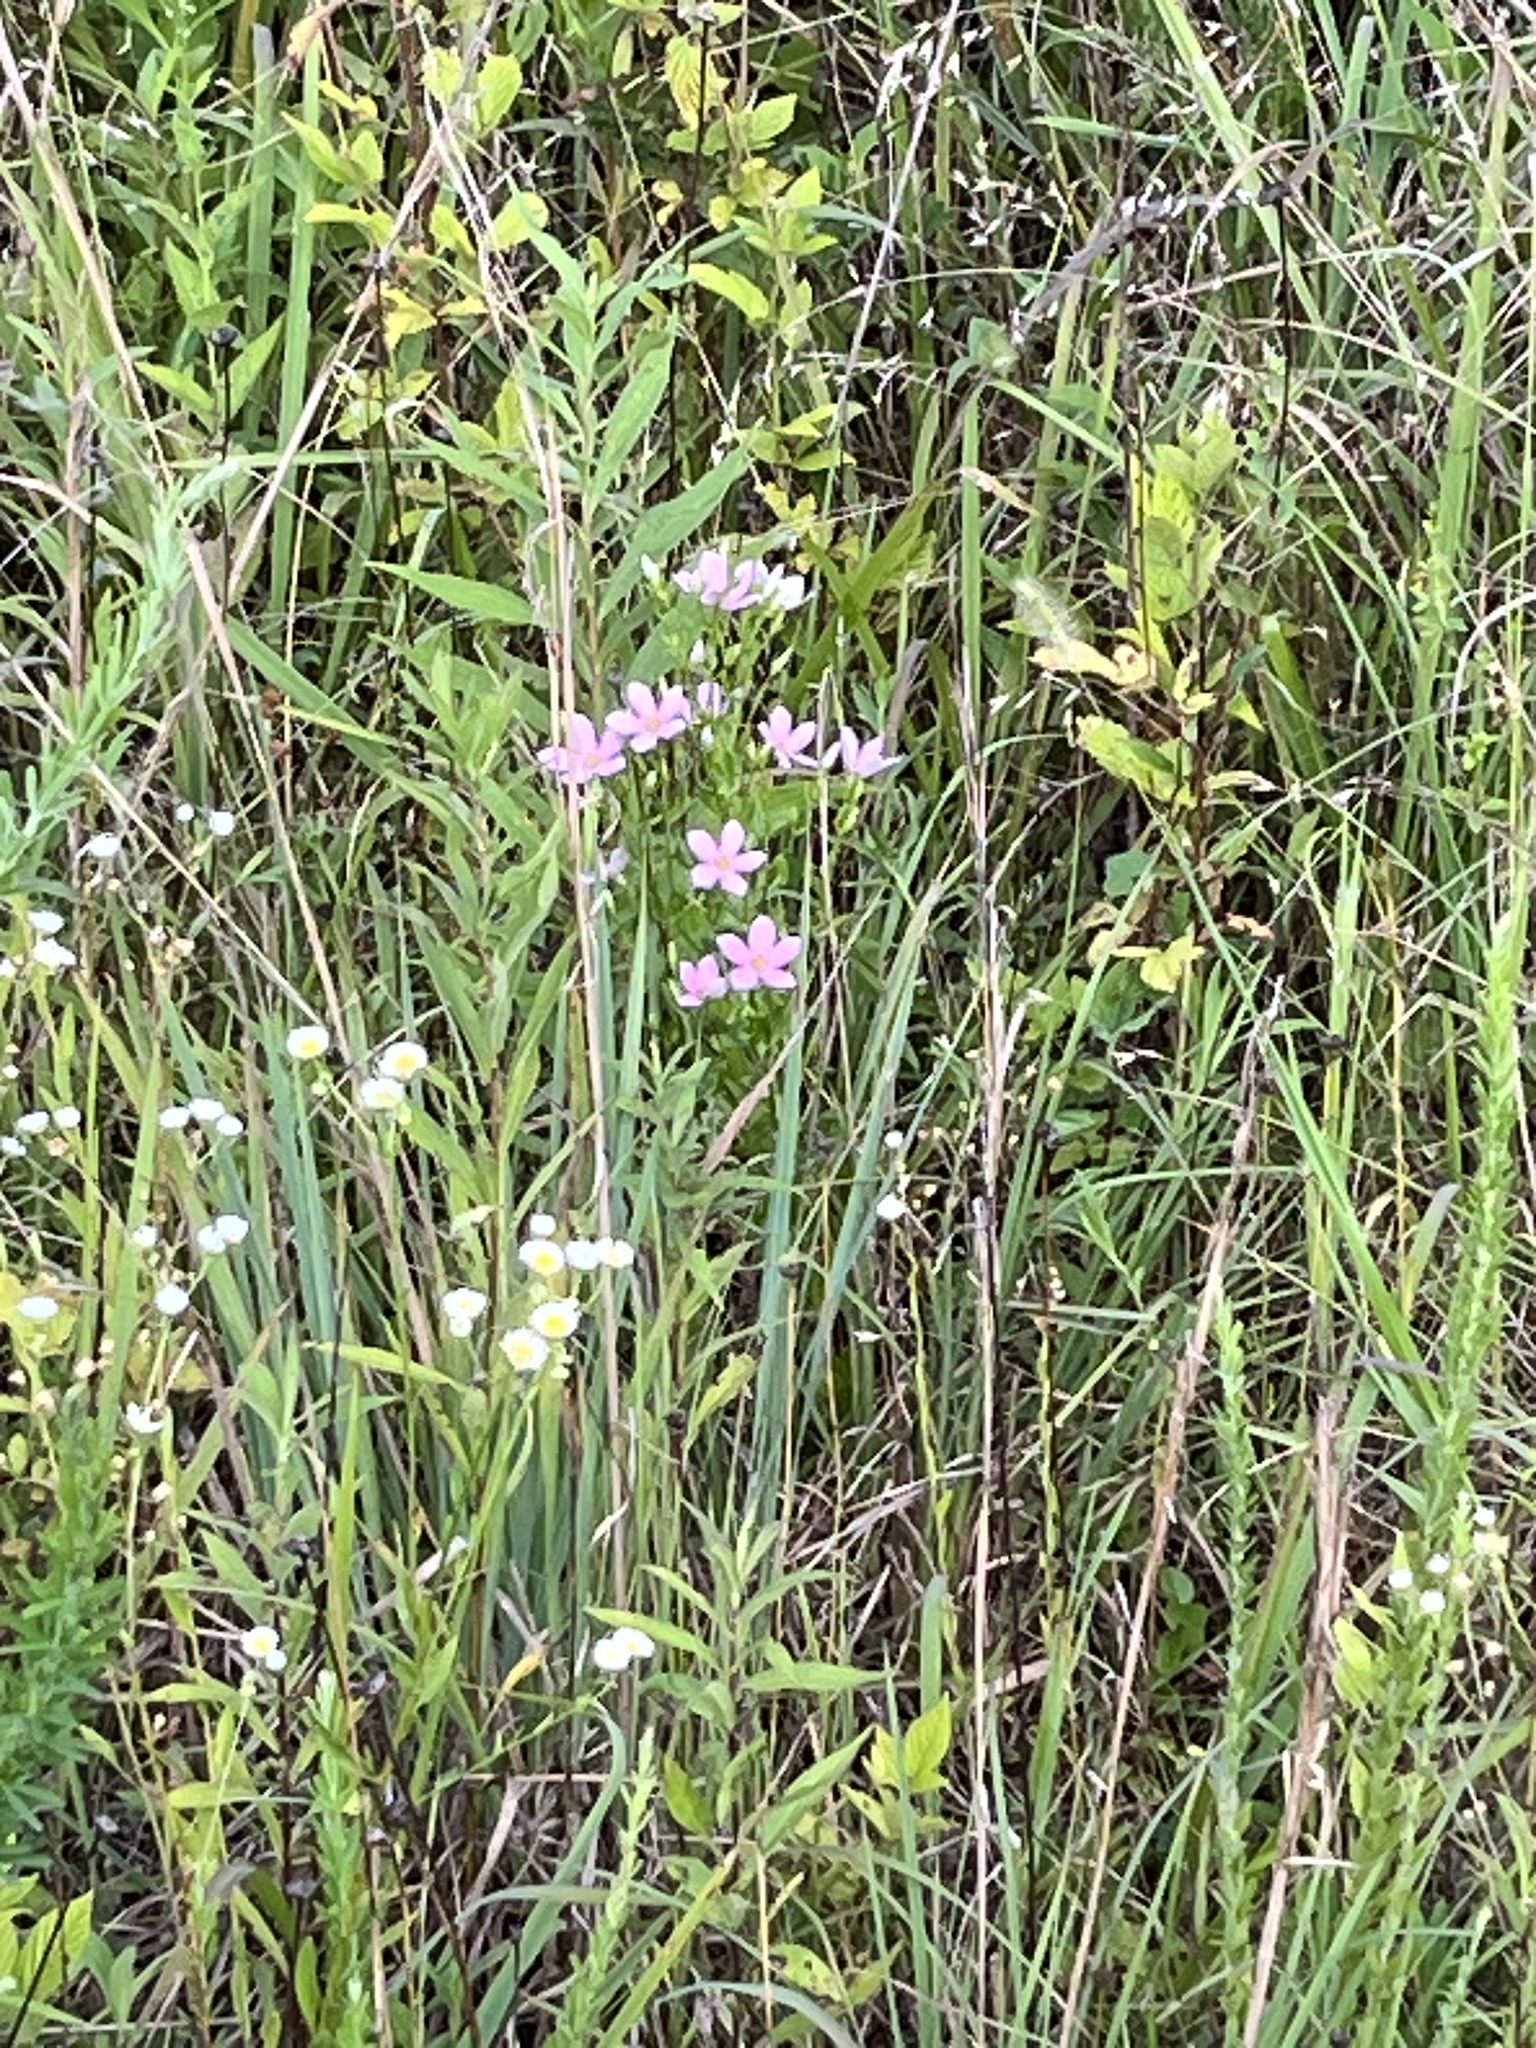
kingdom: Plantae
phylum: Tracheophyta
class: Magnoliopsida
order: Gentianales
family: Gentianaceae
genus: Sabatia
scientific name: Sabatia angularis
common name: Rose-pink
